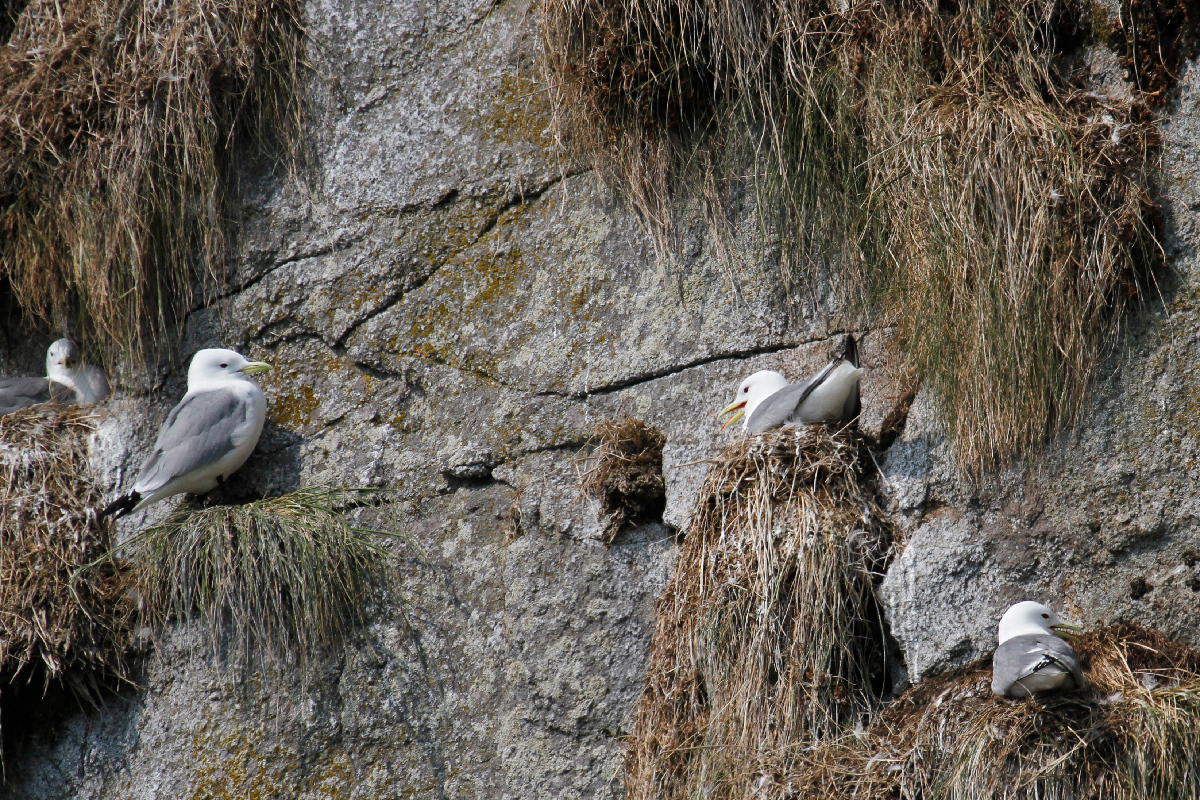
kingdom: Animalia
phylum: Chordata
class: Aves
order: Charadriiformes
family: Laridae
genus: Rissa
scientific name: Rissa tridactyla
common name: Black-legged kittiwake
